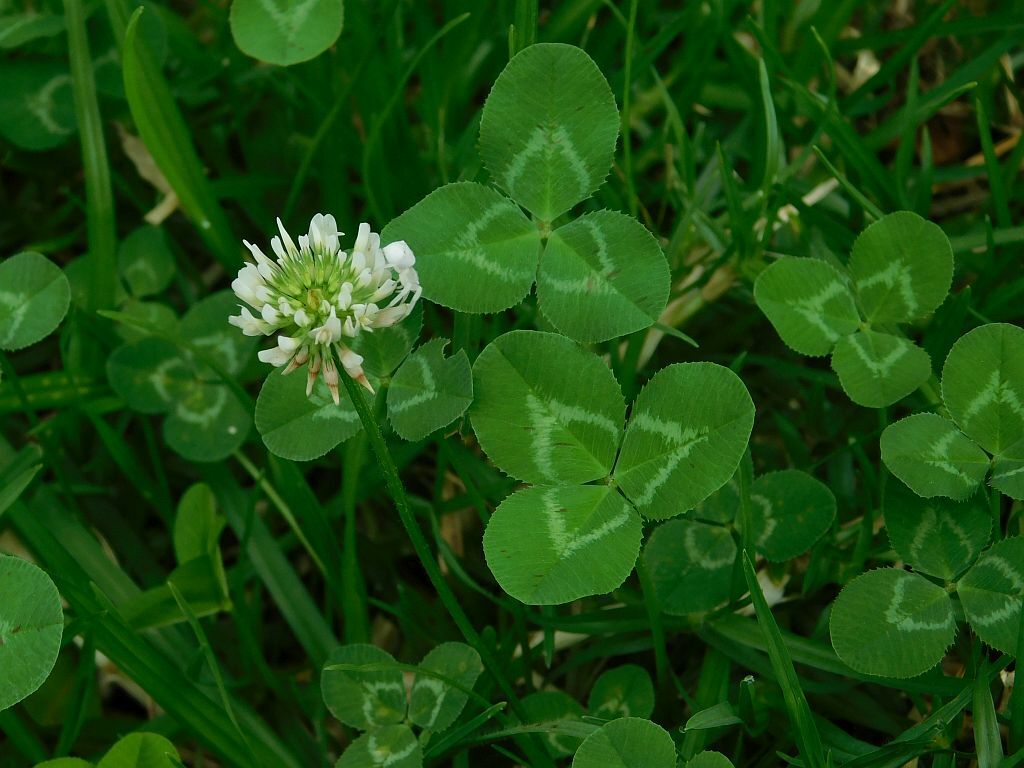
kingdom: Plantae
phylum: Tracheophyta
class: Magnoliopsida
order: Fabales
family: Fabaceae
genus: Trifolium
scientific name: Trifolium repens
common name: White clover
